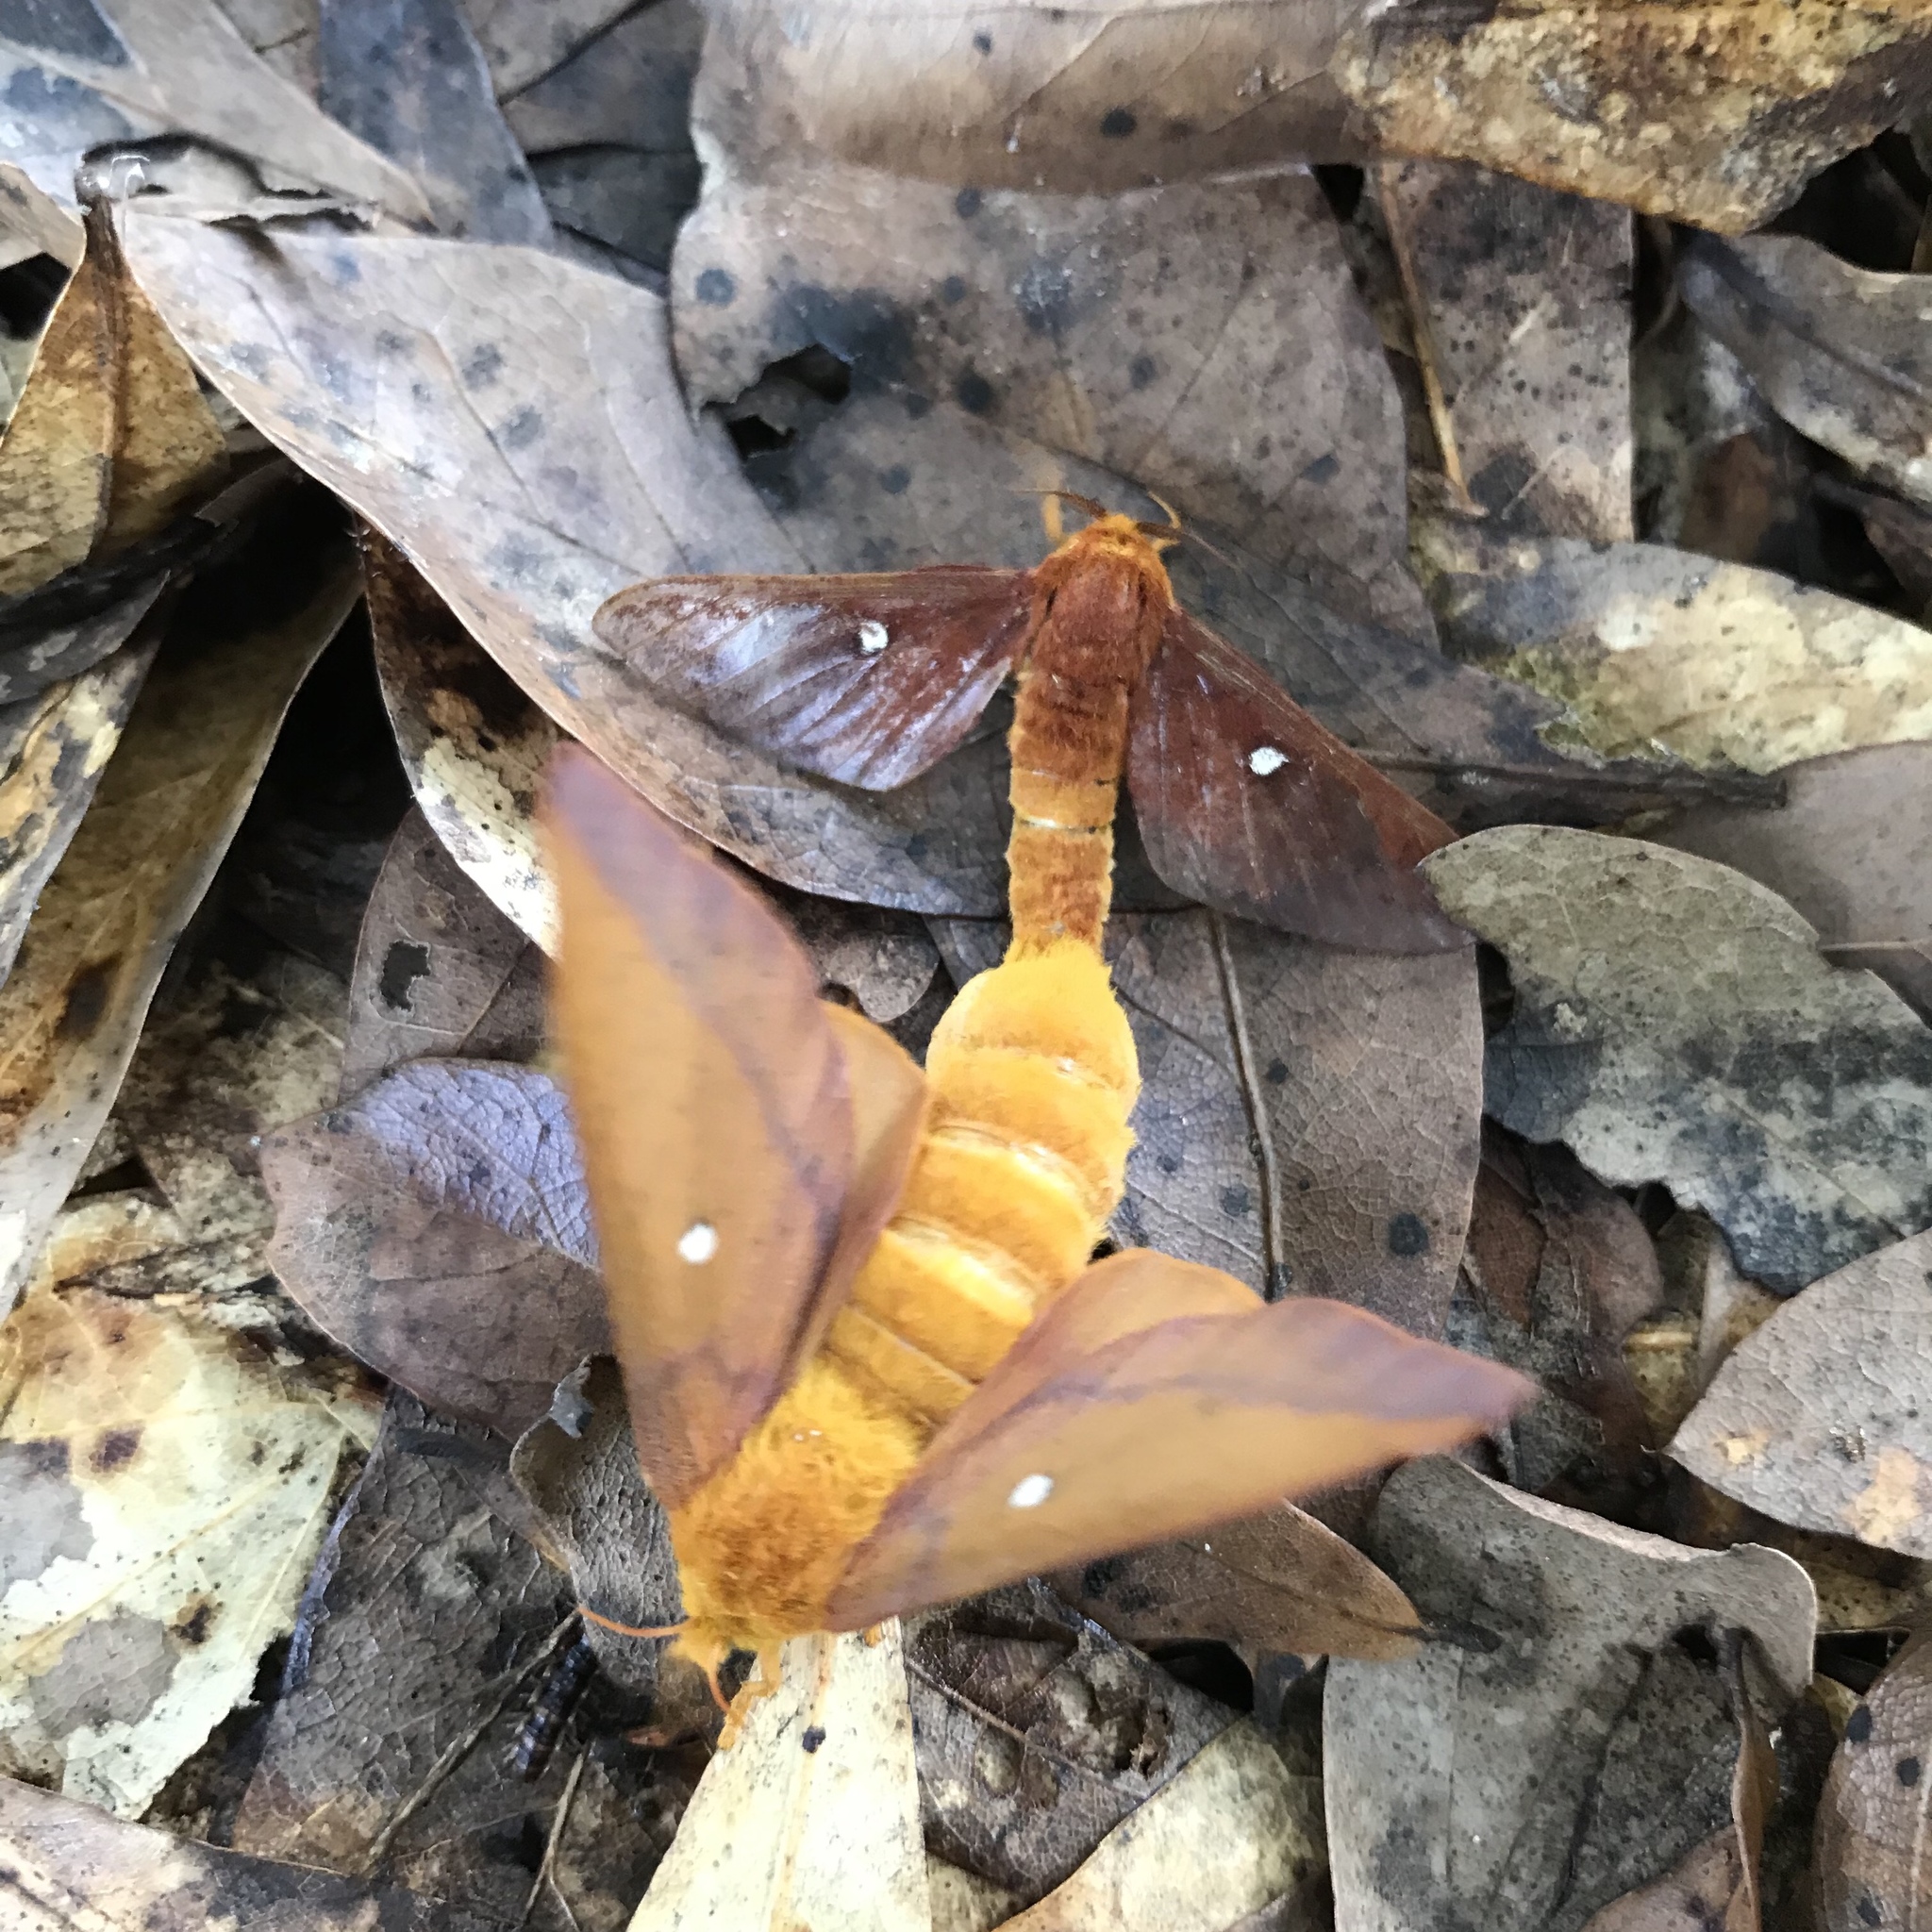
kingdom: Animalia
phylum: Arthropoda
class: Insecta
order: Lepidoptera
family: Saturniidae
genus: Anisota
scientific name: Anisota virginiensis
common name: Pink striped oakworm moth
